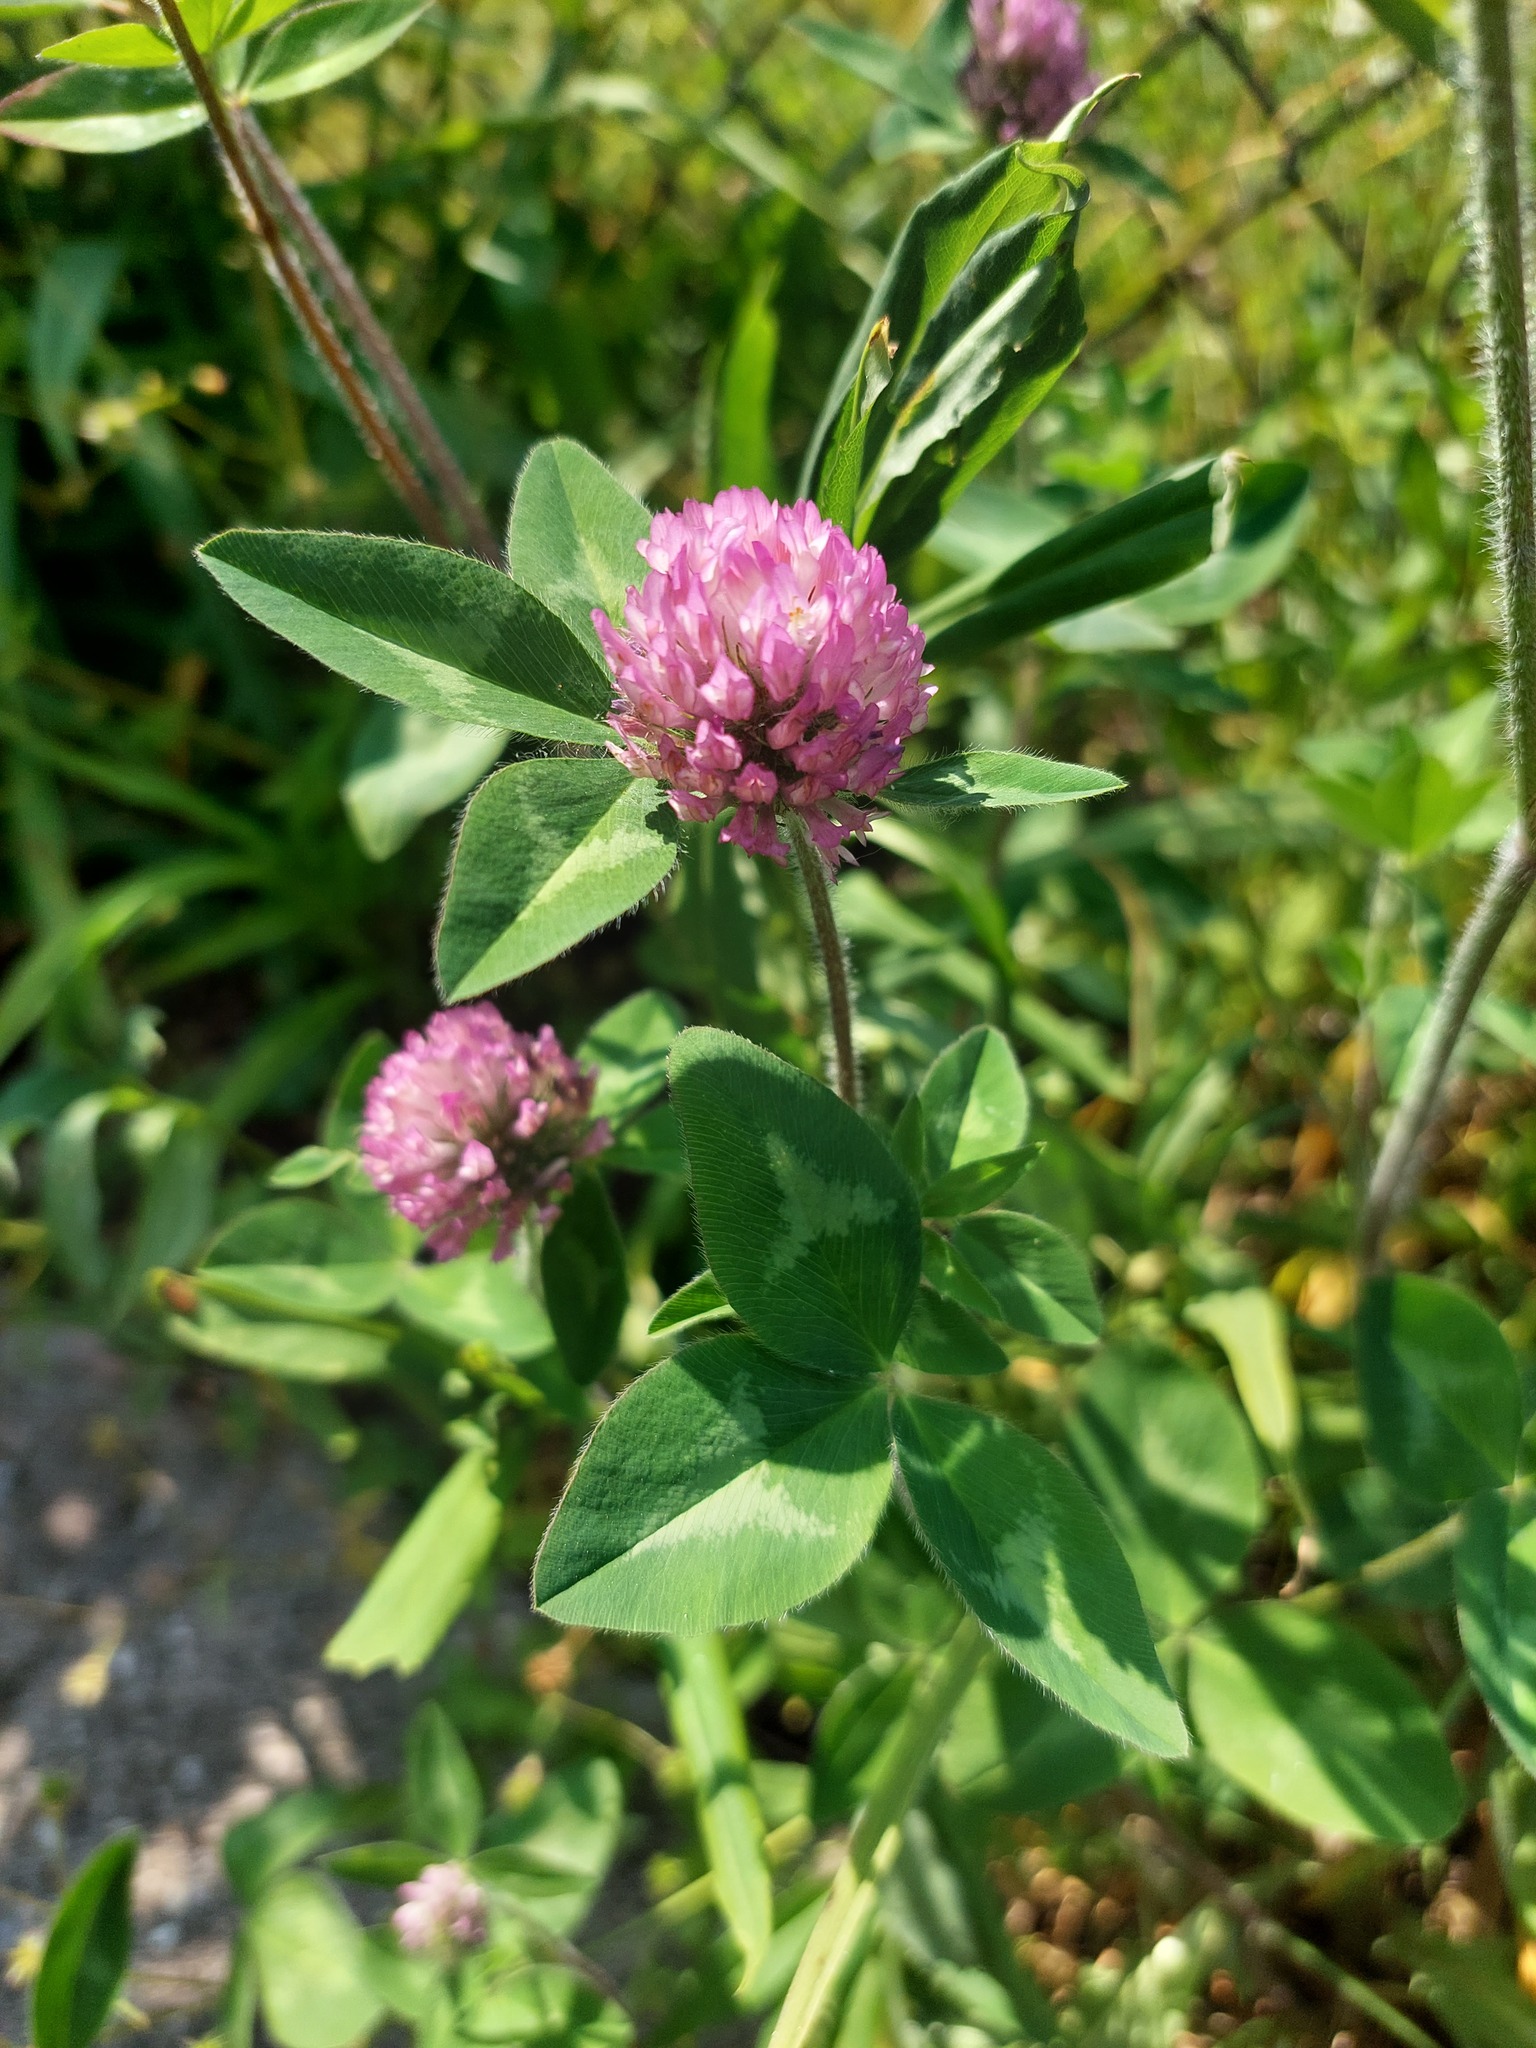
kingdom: Plantae
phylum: Tracheophyta
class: Magnoliopsida
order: Fabales
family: Fabaceae
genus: Trifolium
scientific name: Trifolium pratense
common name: Red clover
